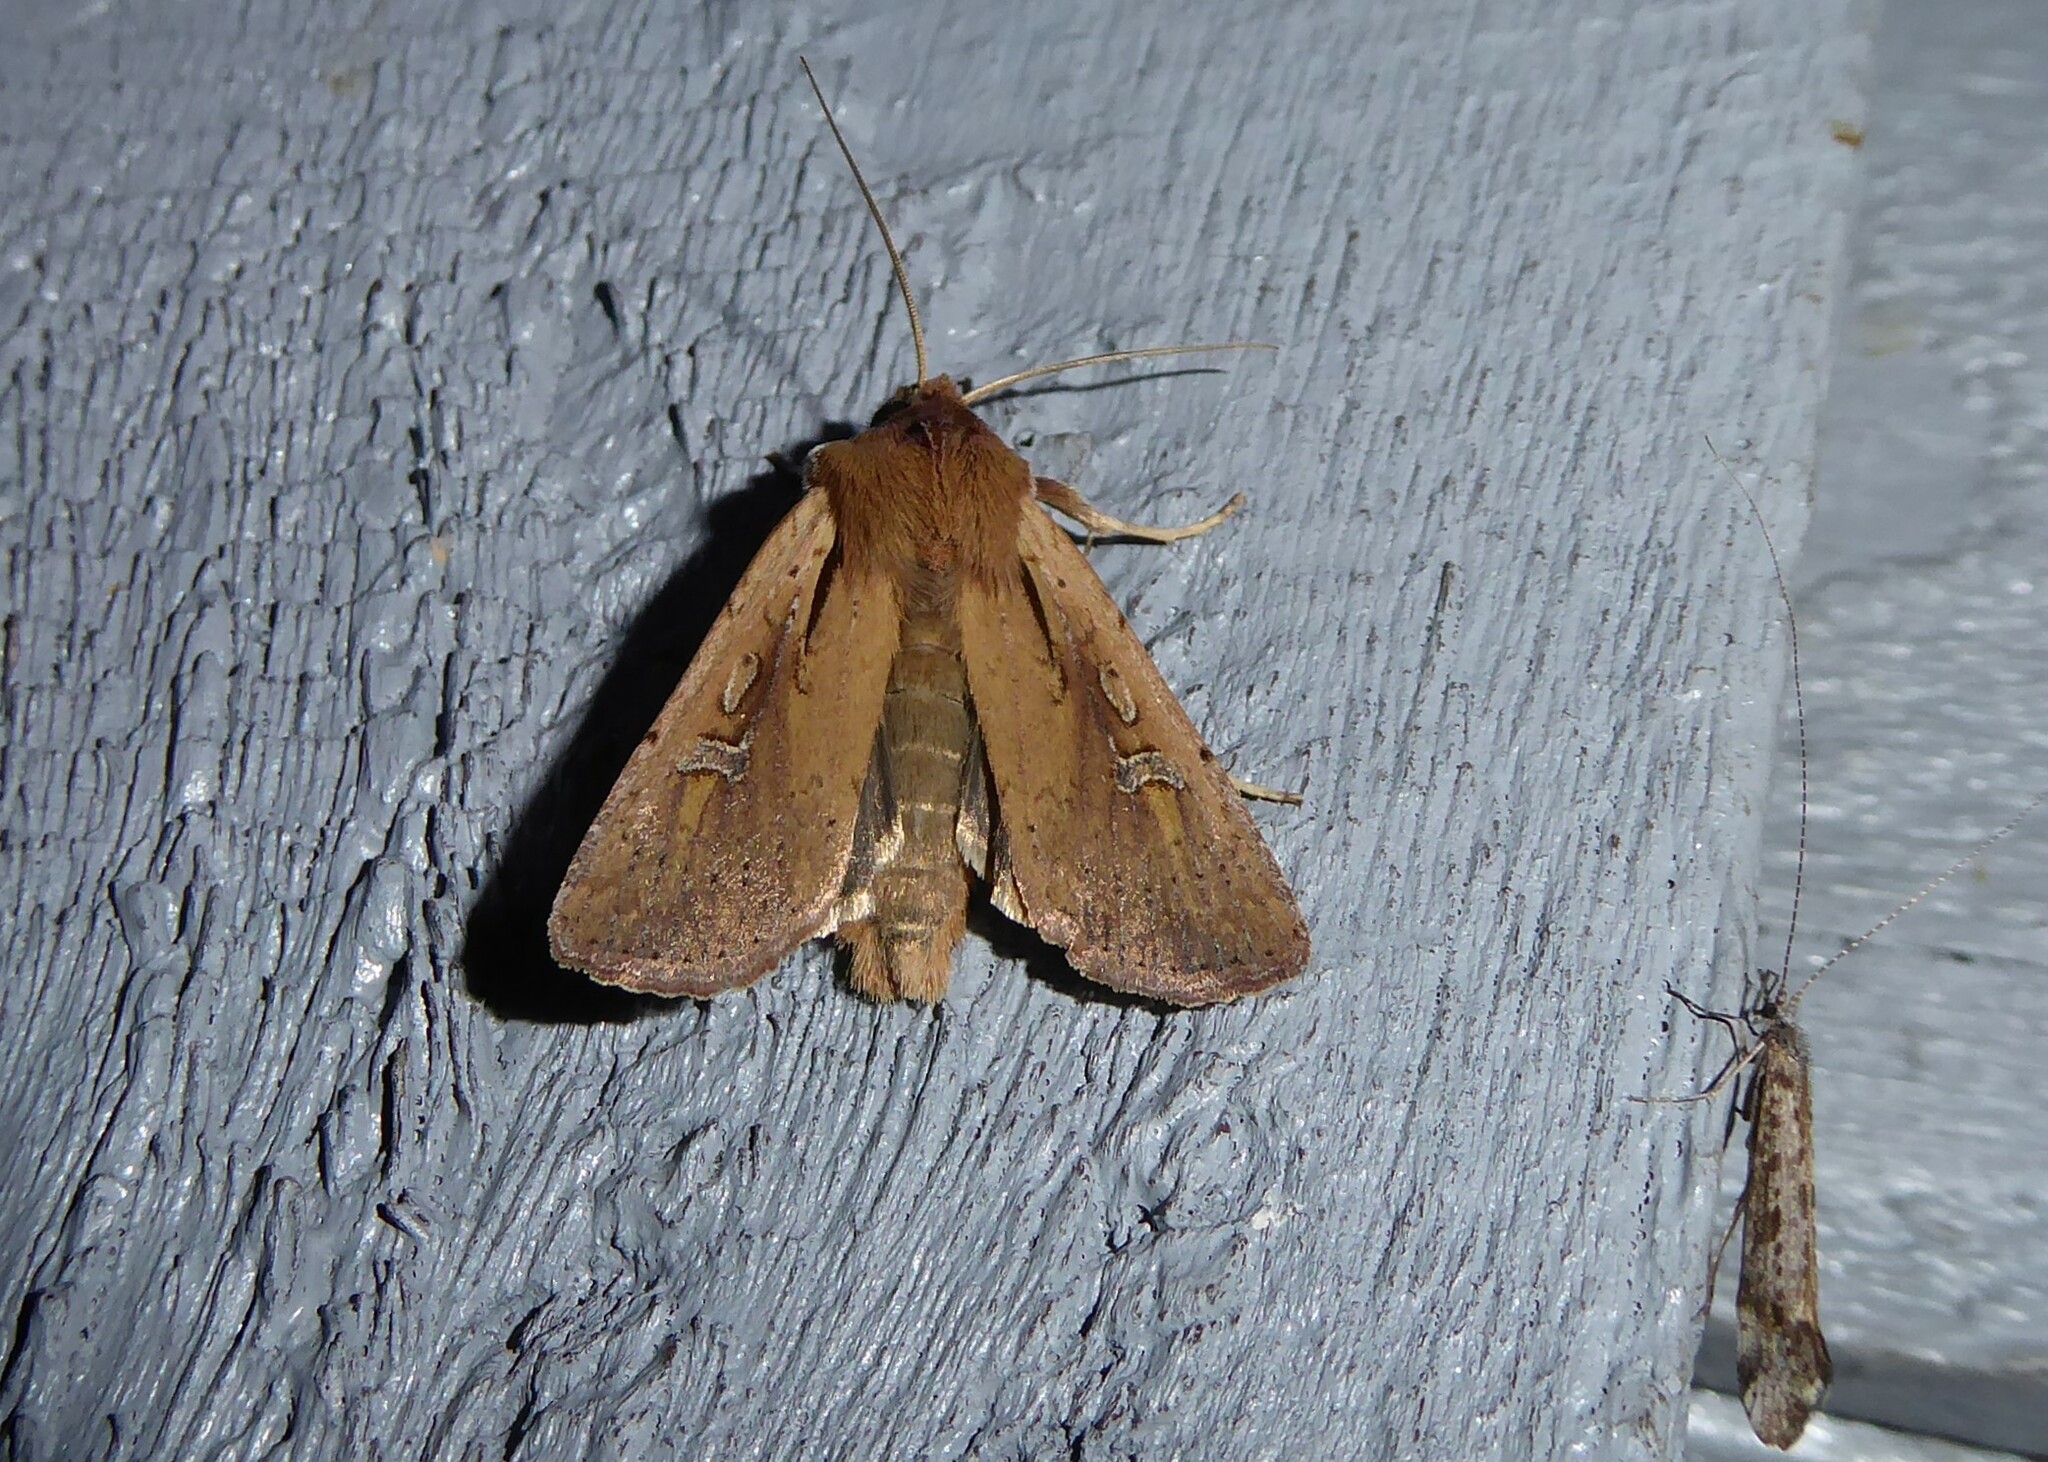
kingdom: Animalia
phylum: Arthropoda
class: Insecta
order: Lepidoptera
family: Noctuidae
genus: Ichneutica
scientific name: Ichneutica atristriga
